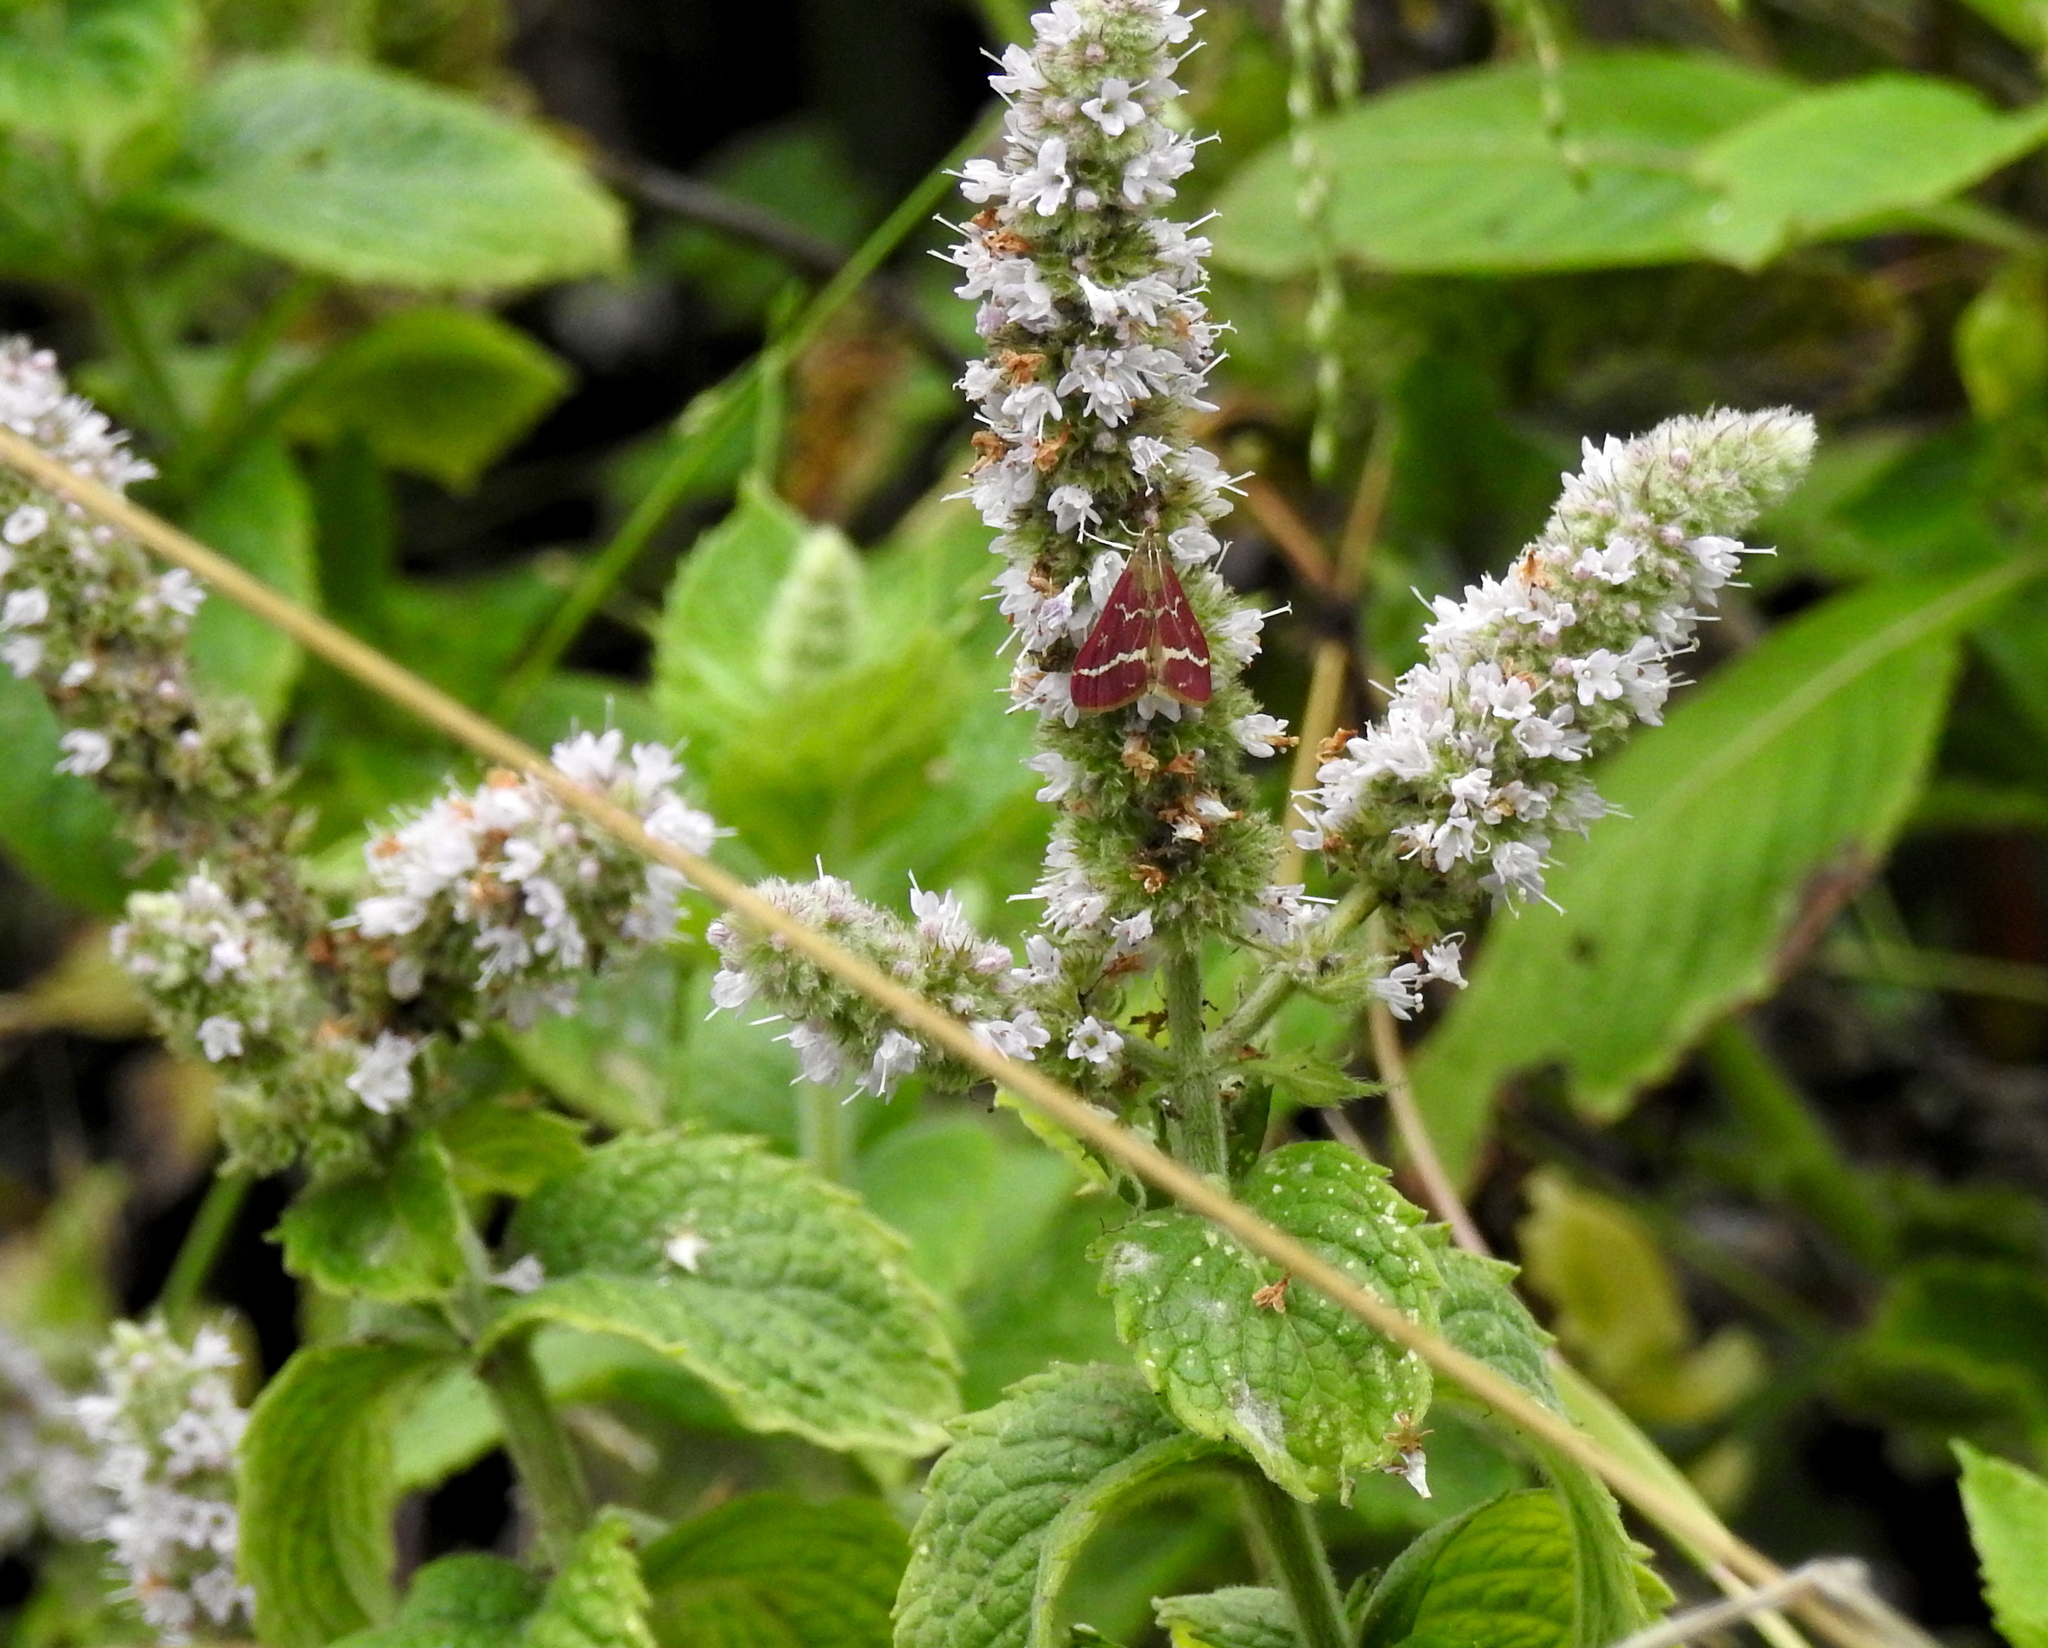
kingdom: Animalia
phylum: Arthropoda
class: Insecta
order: Lepidoptera
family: Crambidae
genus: Pyrausta
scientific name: Pyrausta volupialis
